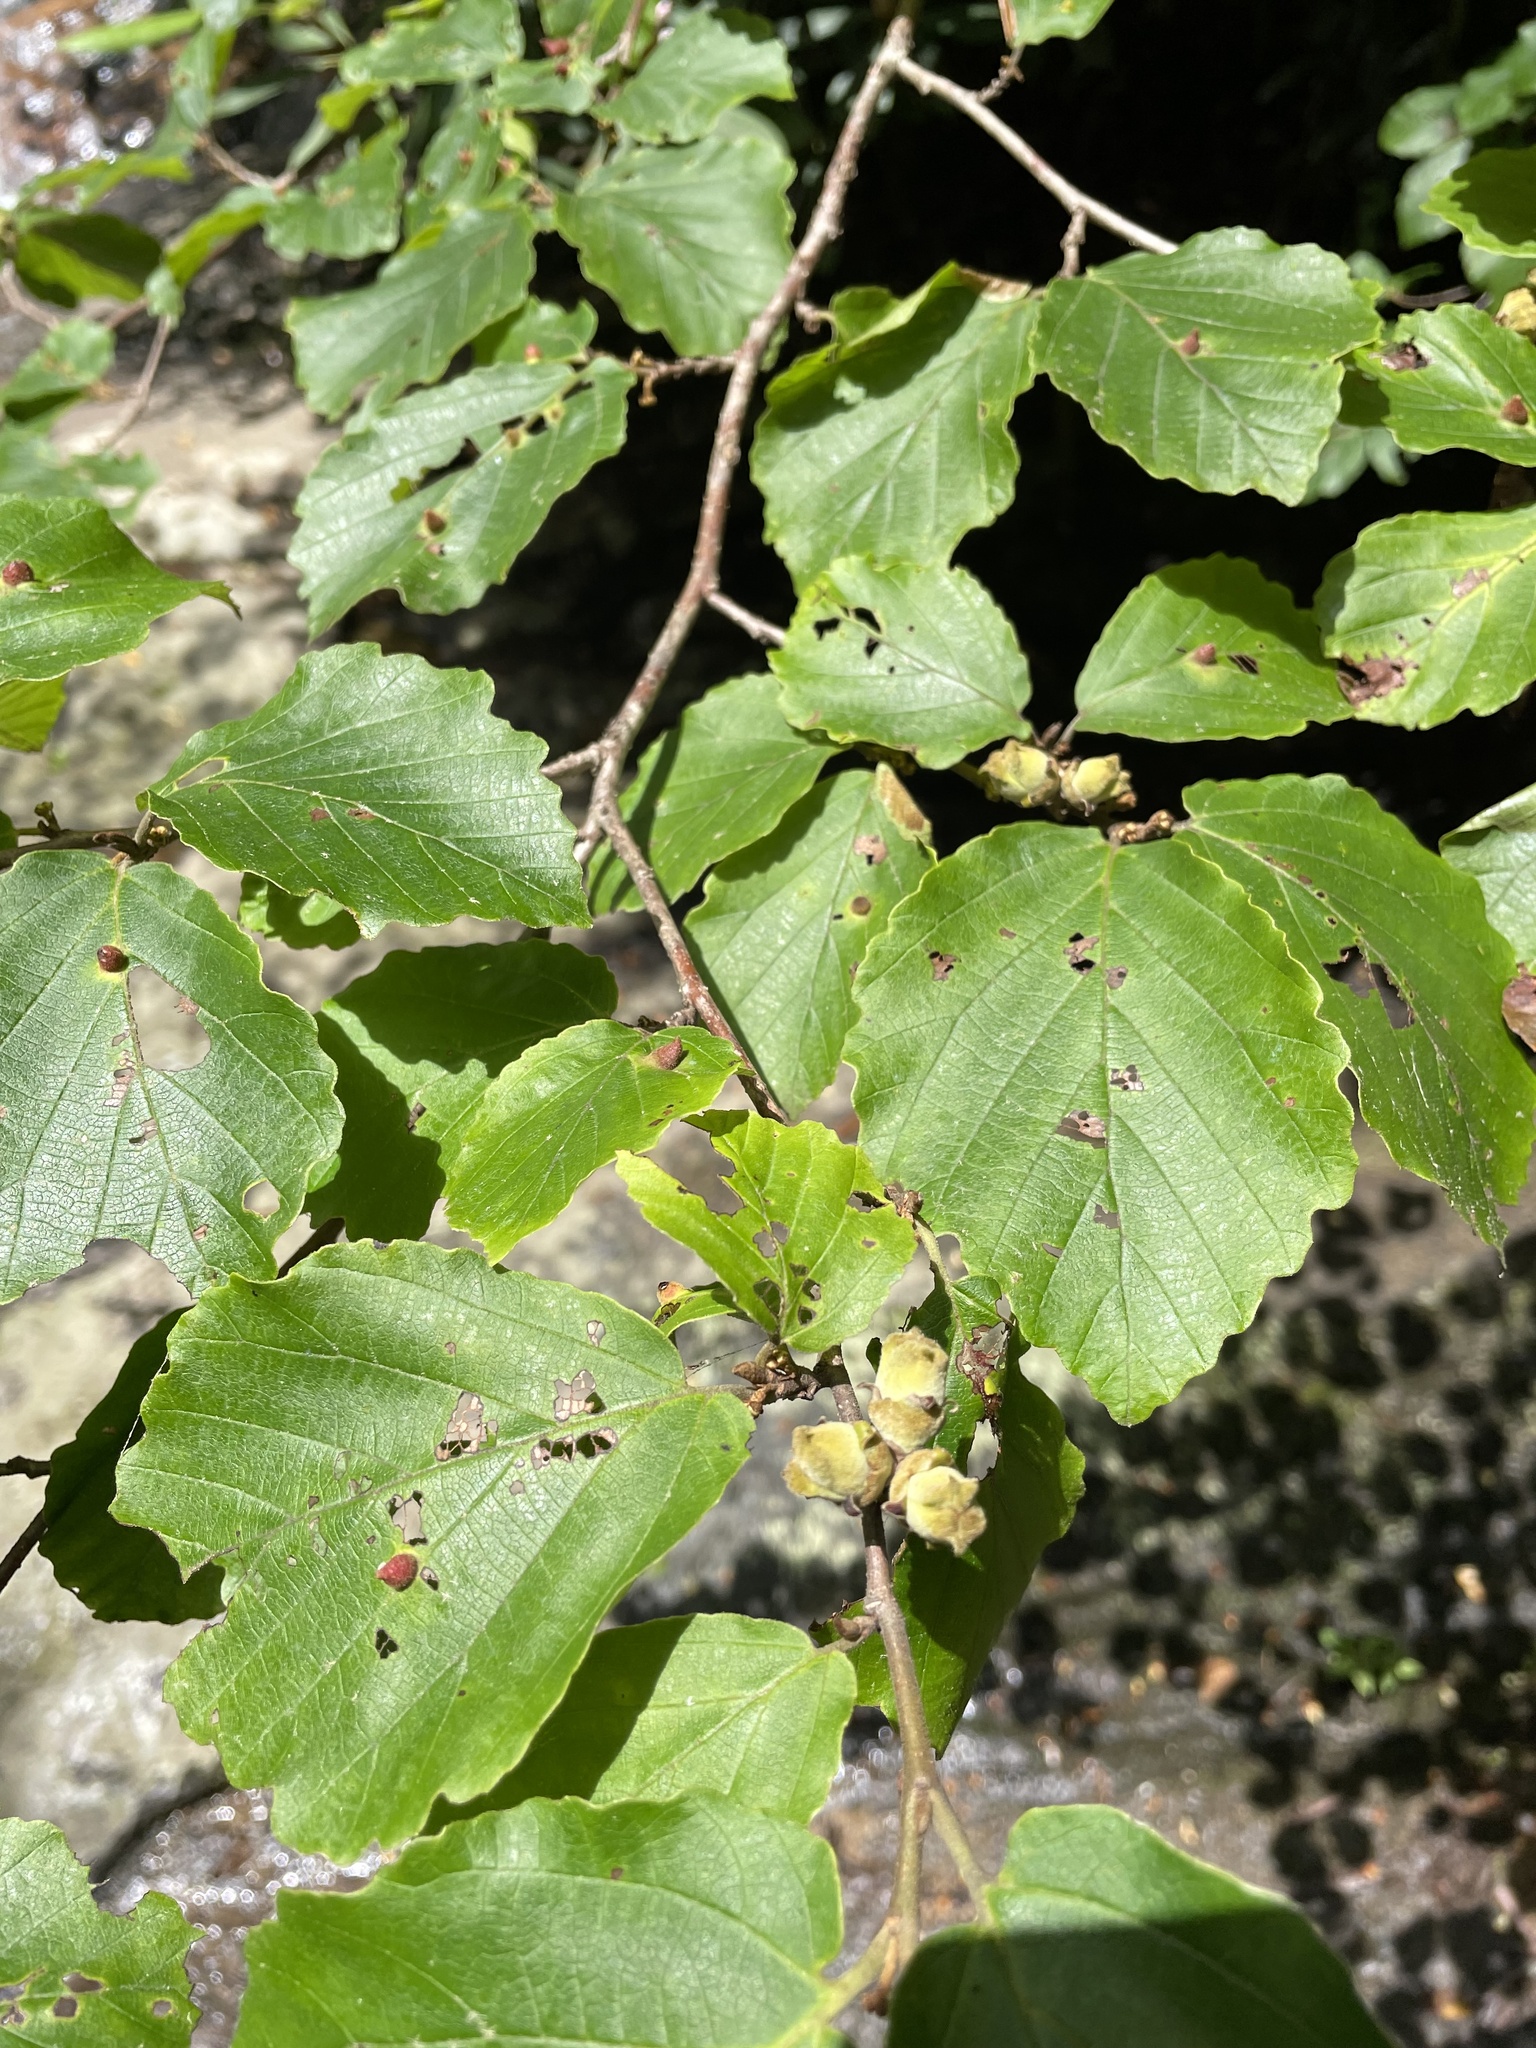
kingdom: Plantae
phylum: Tracheophyta
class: Magnoliopsida
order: Saxifragales
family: Hamamelidaceae
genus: Hamamelis
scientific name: Hamamelis virginiana
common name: Witch-hazel
